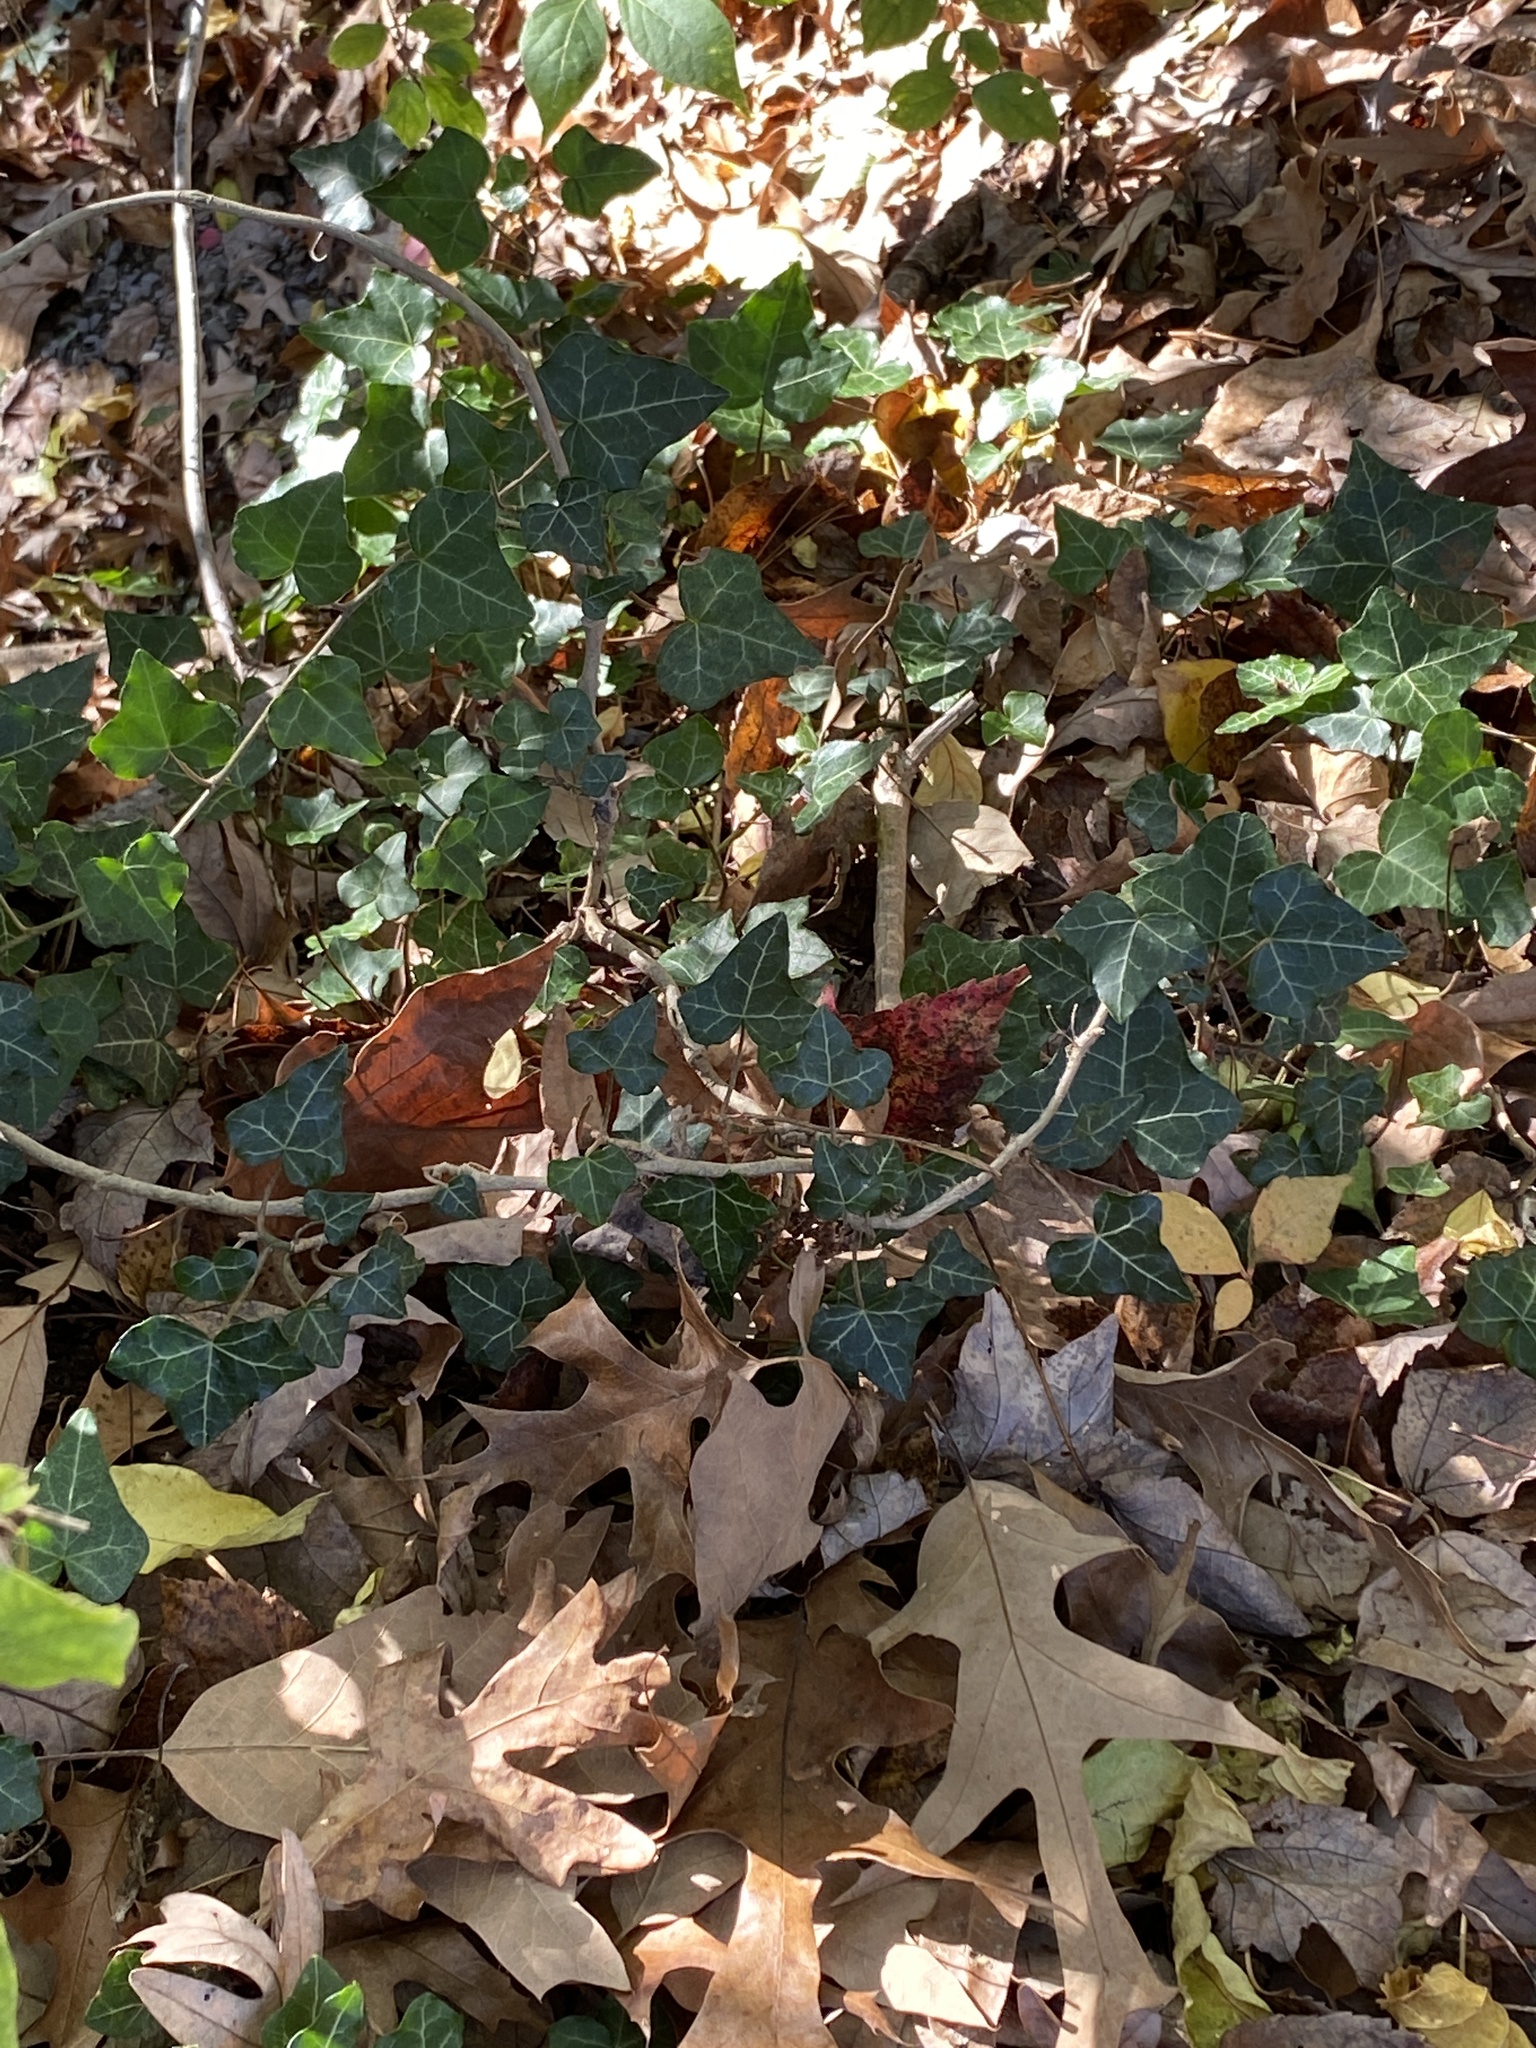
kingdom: Plantae
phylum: Tracheophyta
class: Magnoliopsida
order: Apiales
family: Araliaceae
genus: Hedera
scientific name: Hedera helix
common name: Ivy
